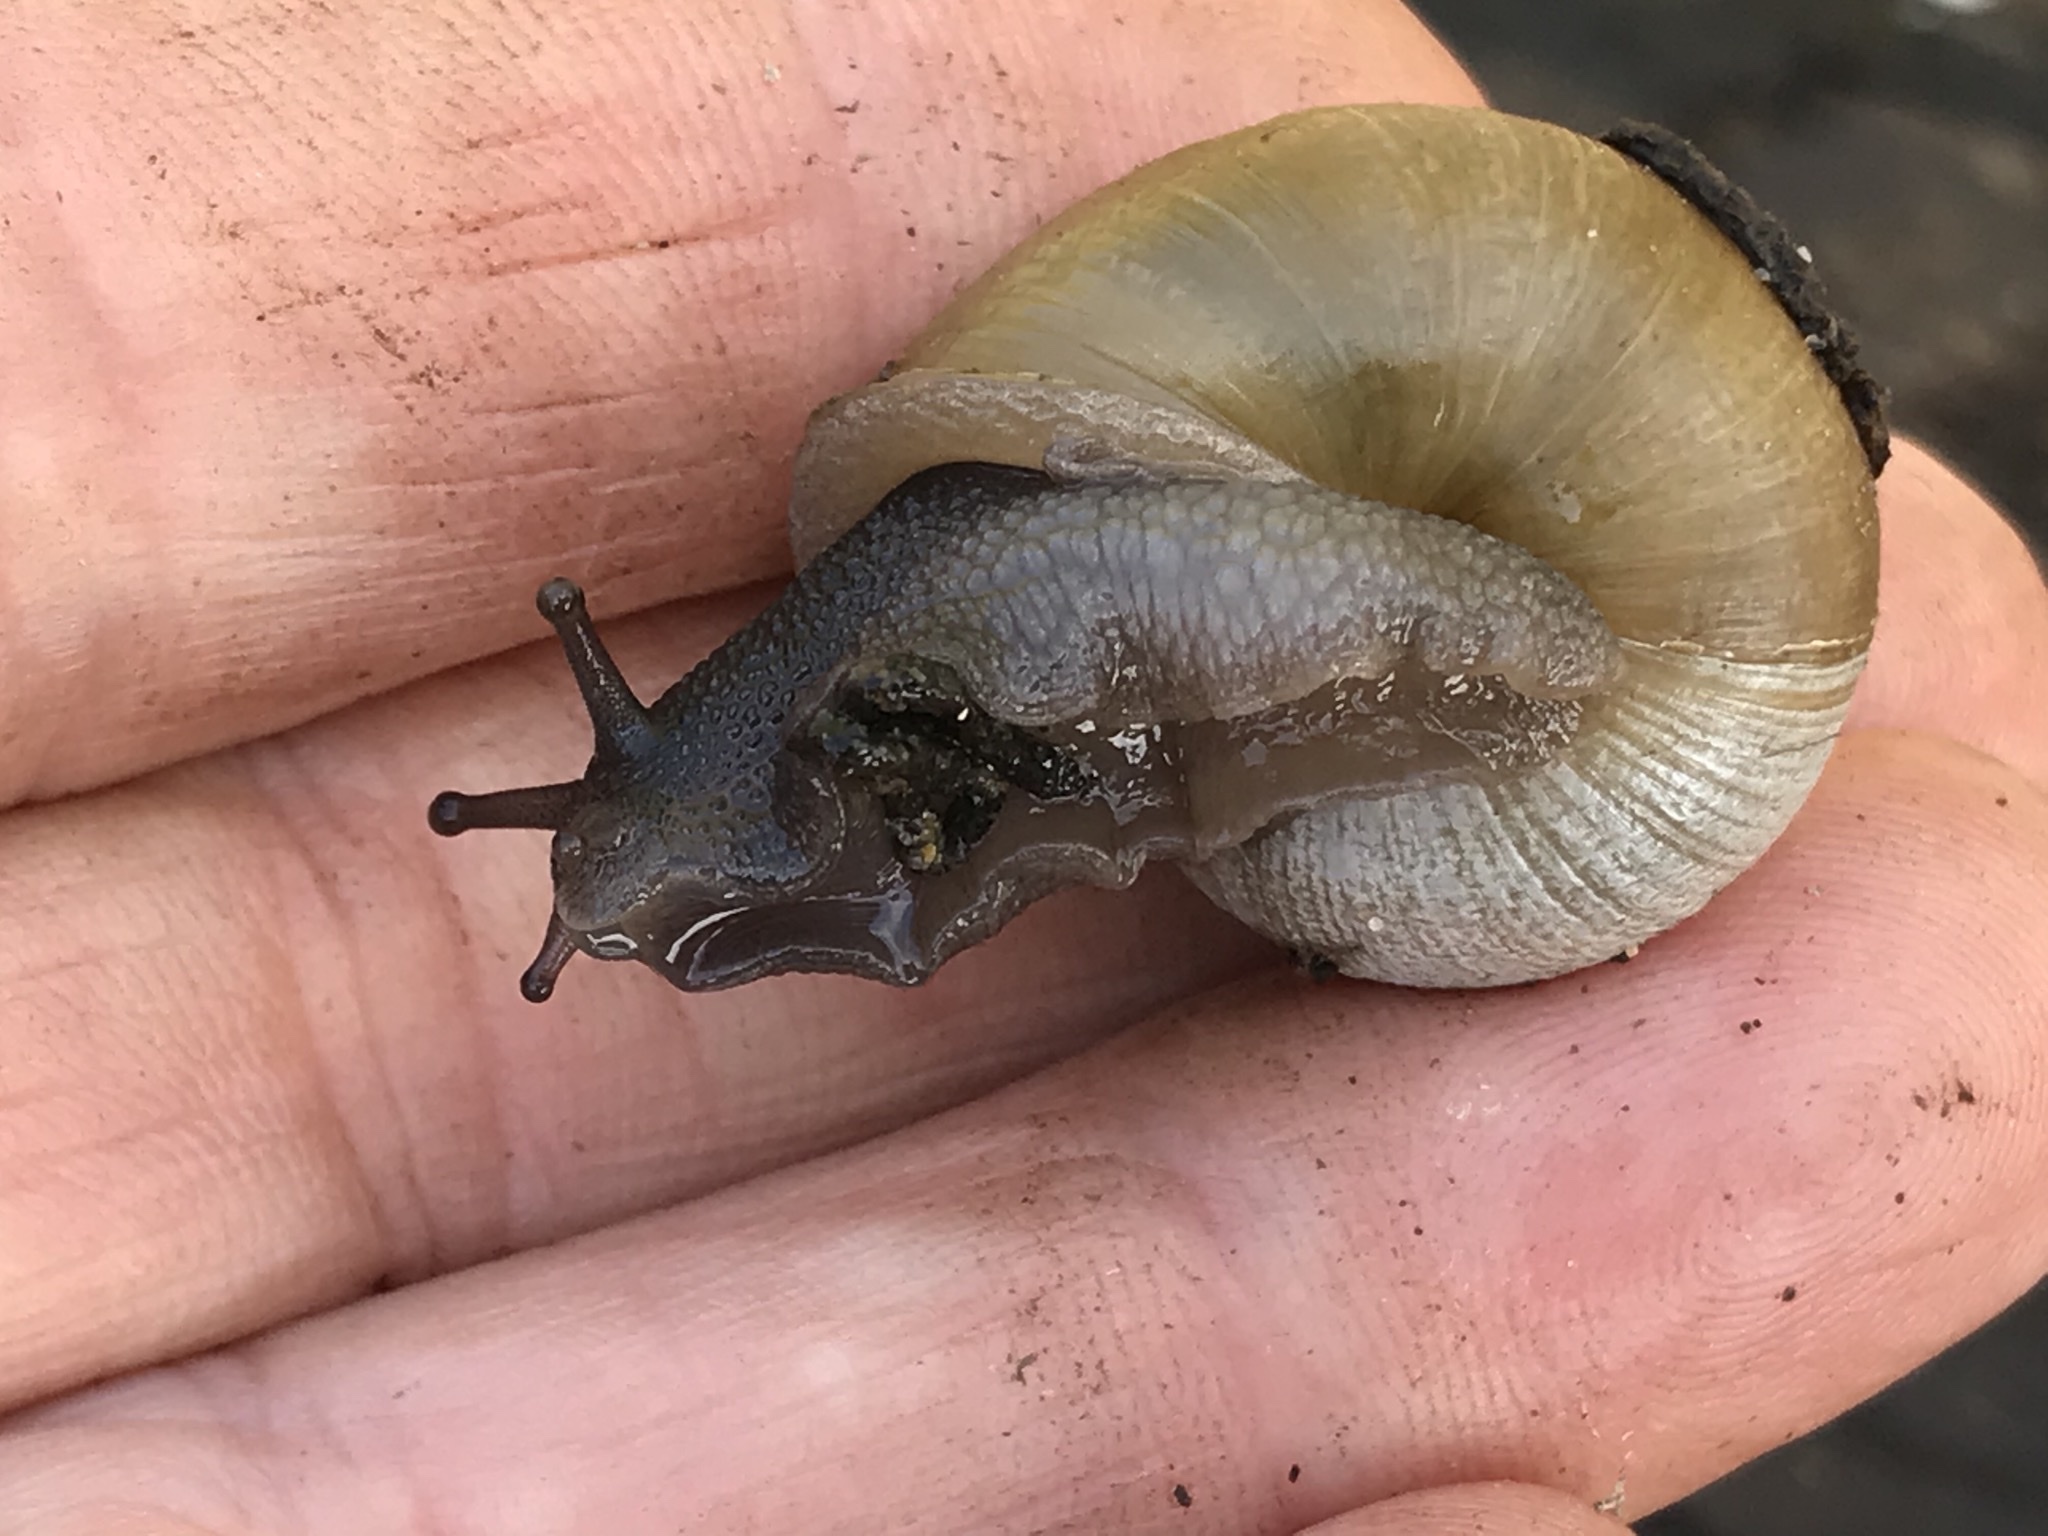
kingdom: Animalia
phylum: Mollusca
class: Gastropoda
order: Stylommatophora
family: Xanthonychidae
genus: Helminthoglypta
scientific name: Helminthoglypta stiversiana
